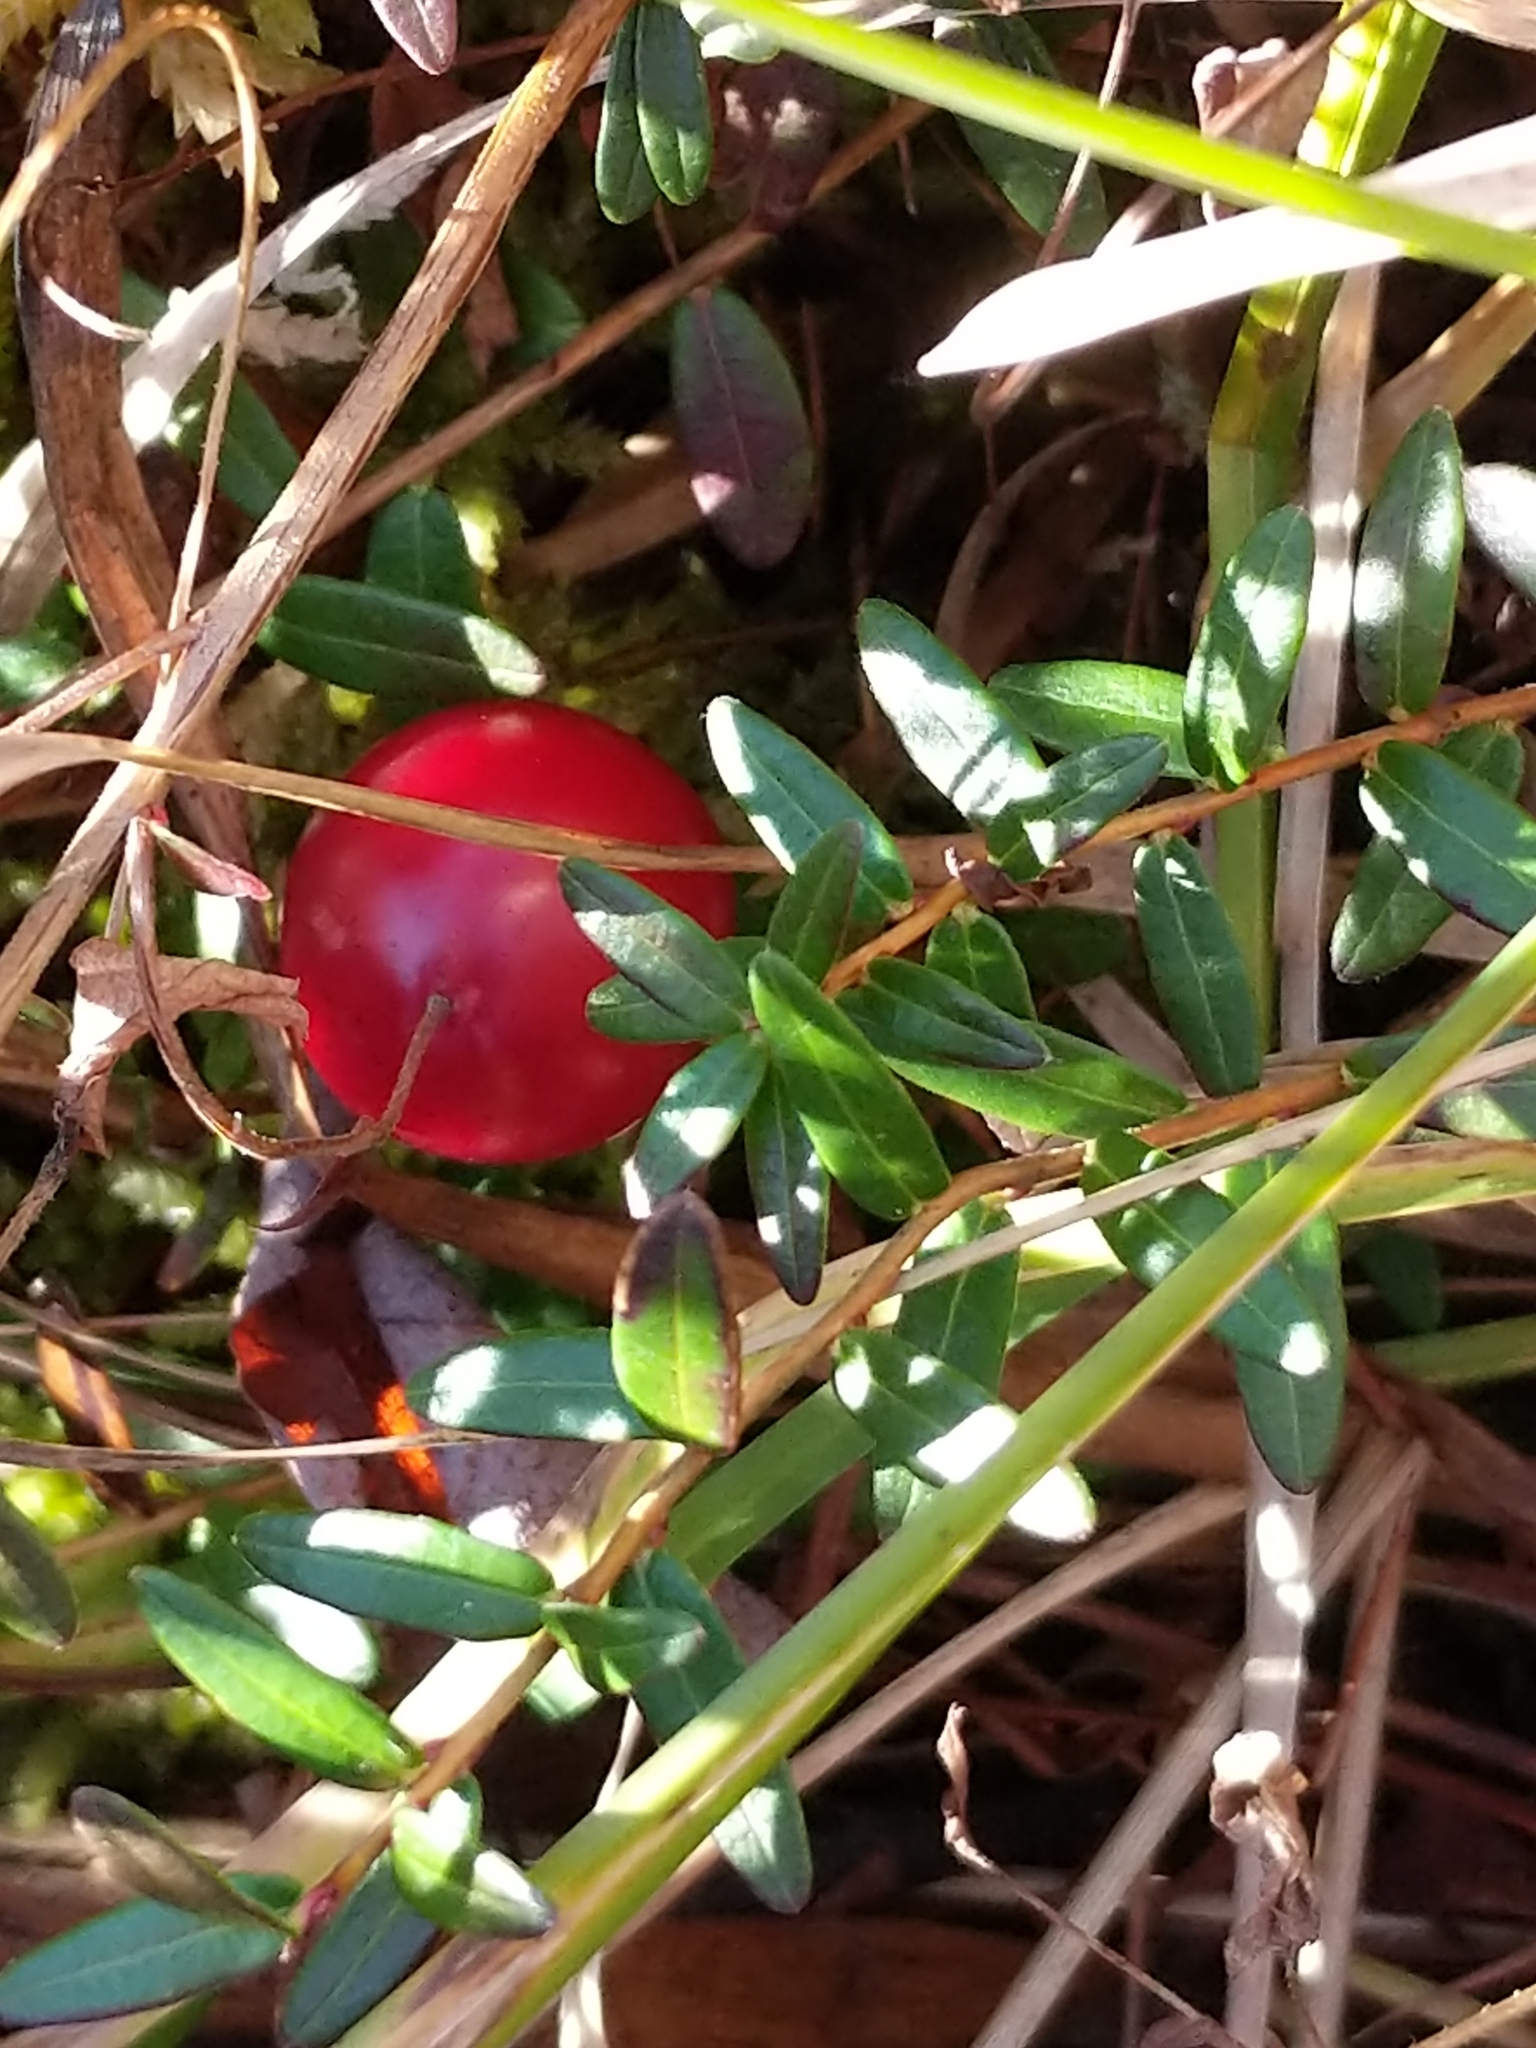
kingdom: Plantae
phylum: Tracheophyta
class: Magnoliopsida
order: Ericales
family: Ericaceae
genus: Vaccinium
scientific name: Vaccinium macrocarpon
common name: American cranberry
